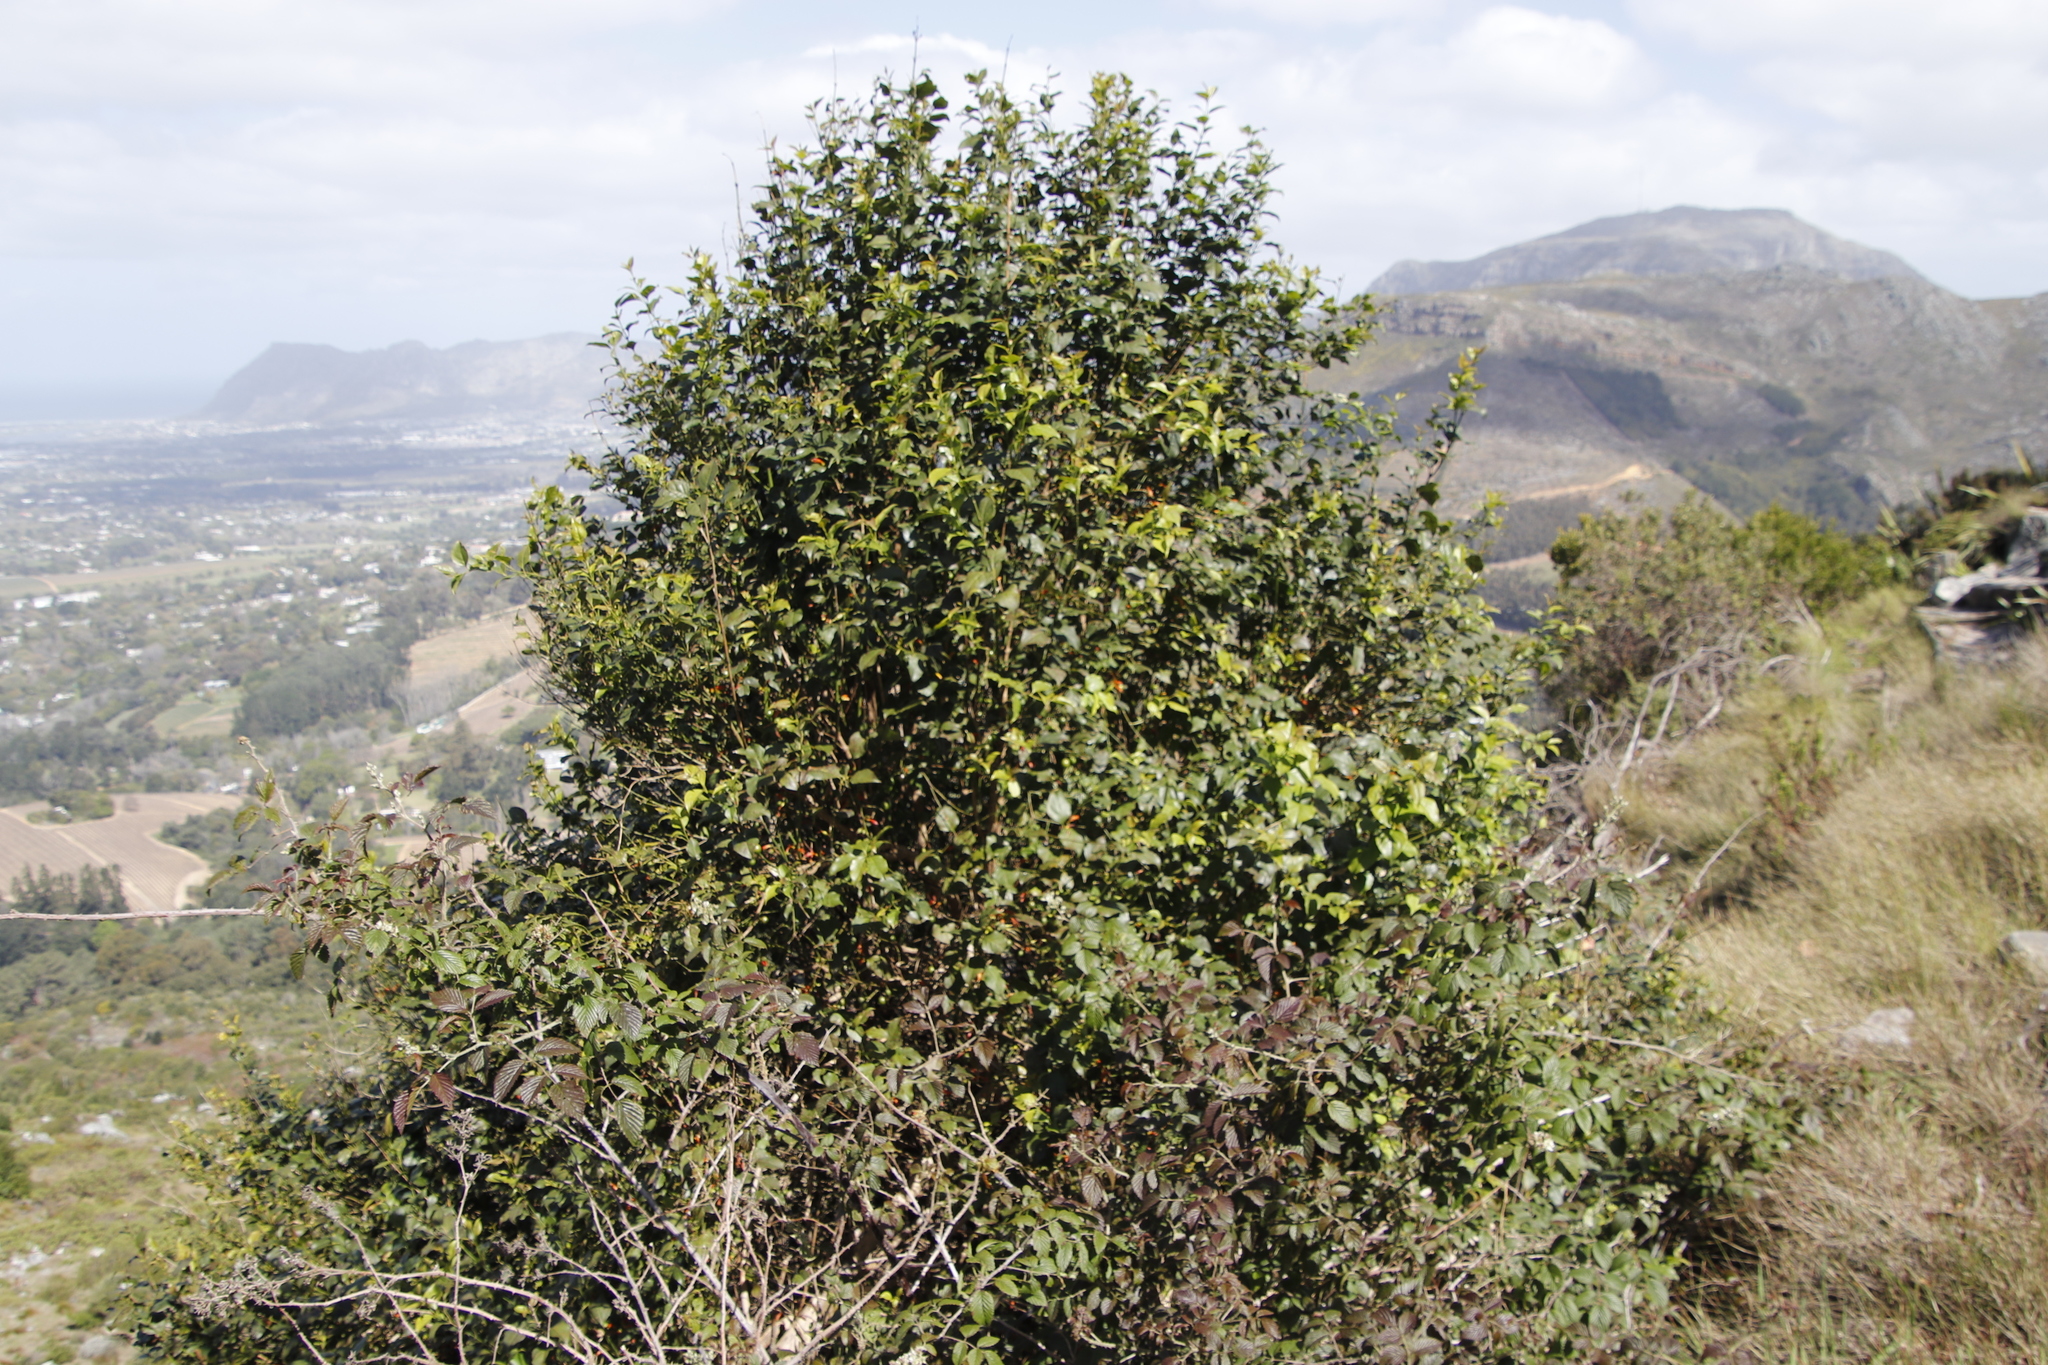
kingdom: Plantae
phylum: Tracheophyta
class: Magnoliopsida
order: Lamiales
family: Stilbaceae
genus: Halleria
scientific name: Halleria lucida
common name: Tree fuschia
